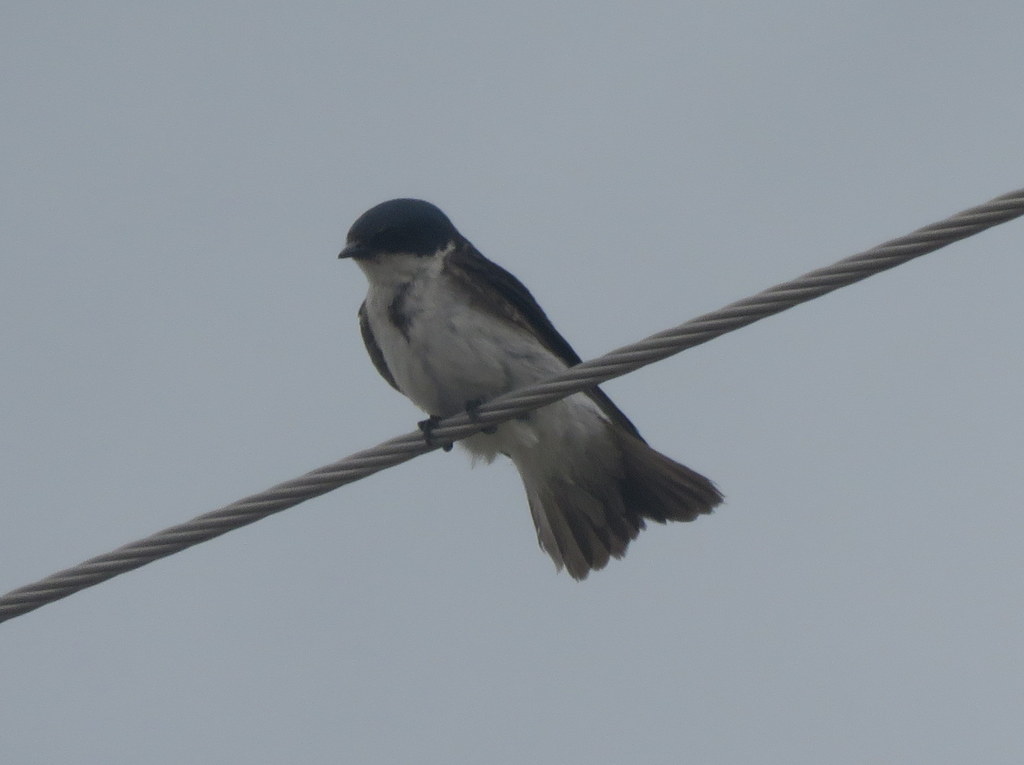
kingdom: Animalia
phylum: Chordata
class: Aves
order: Passeriformes
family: Hirundinidae
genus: Tachycineta
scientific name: Tachycineta leucopyga
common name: Chilean swallow
